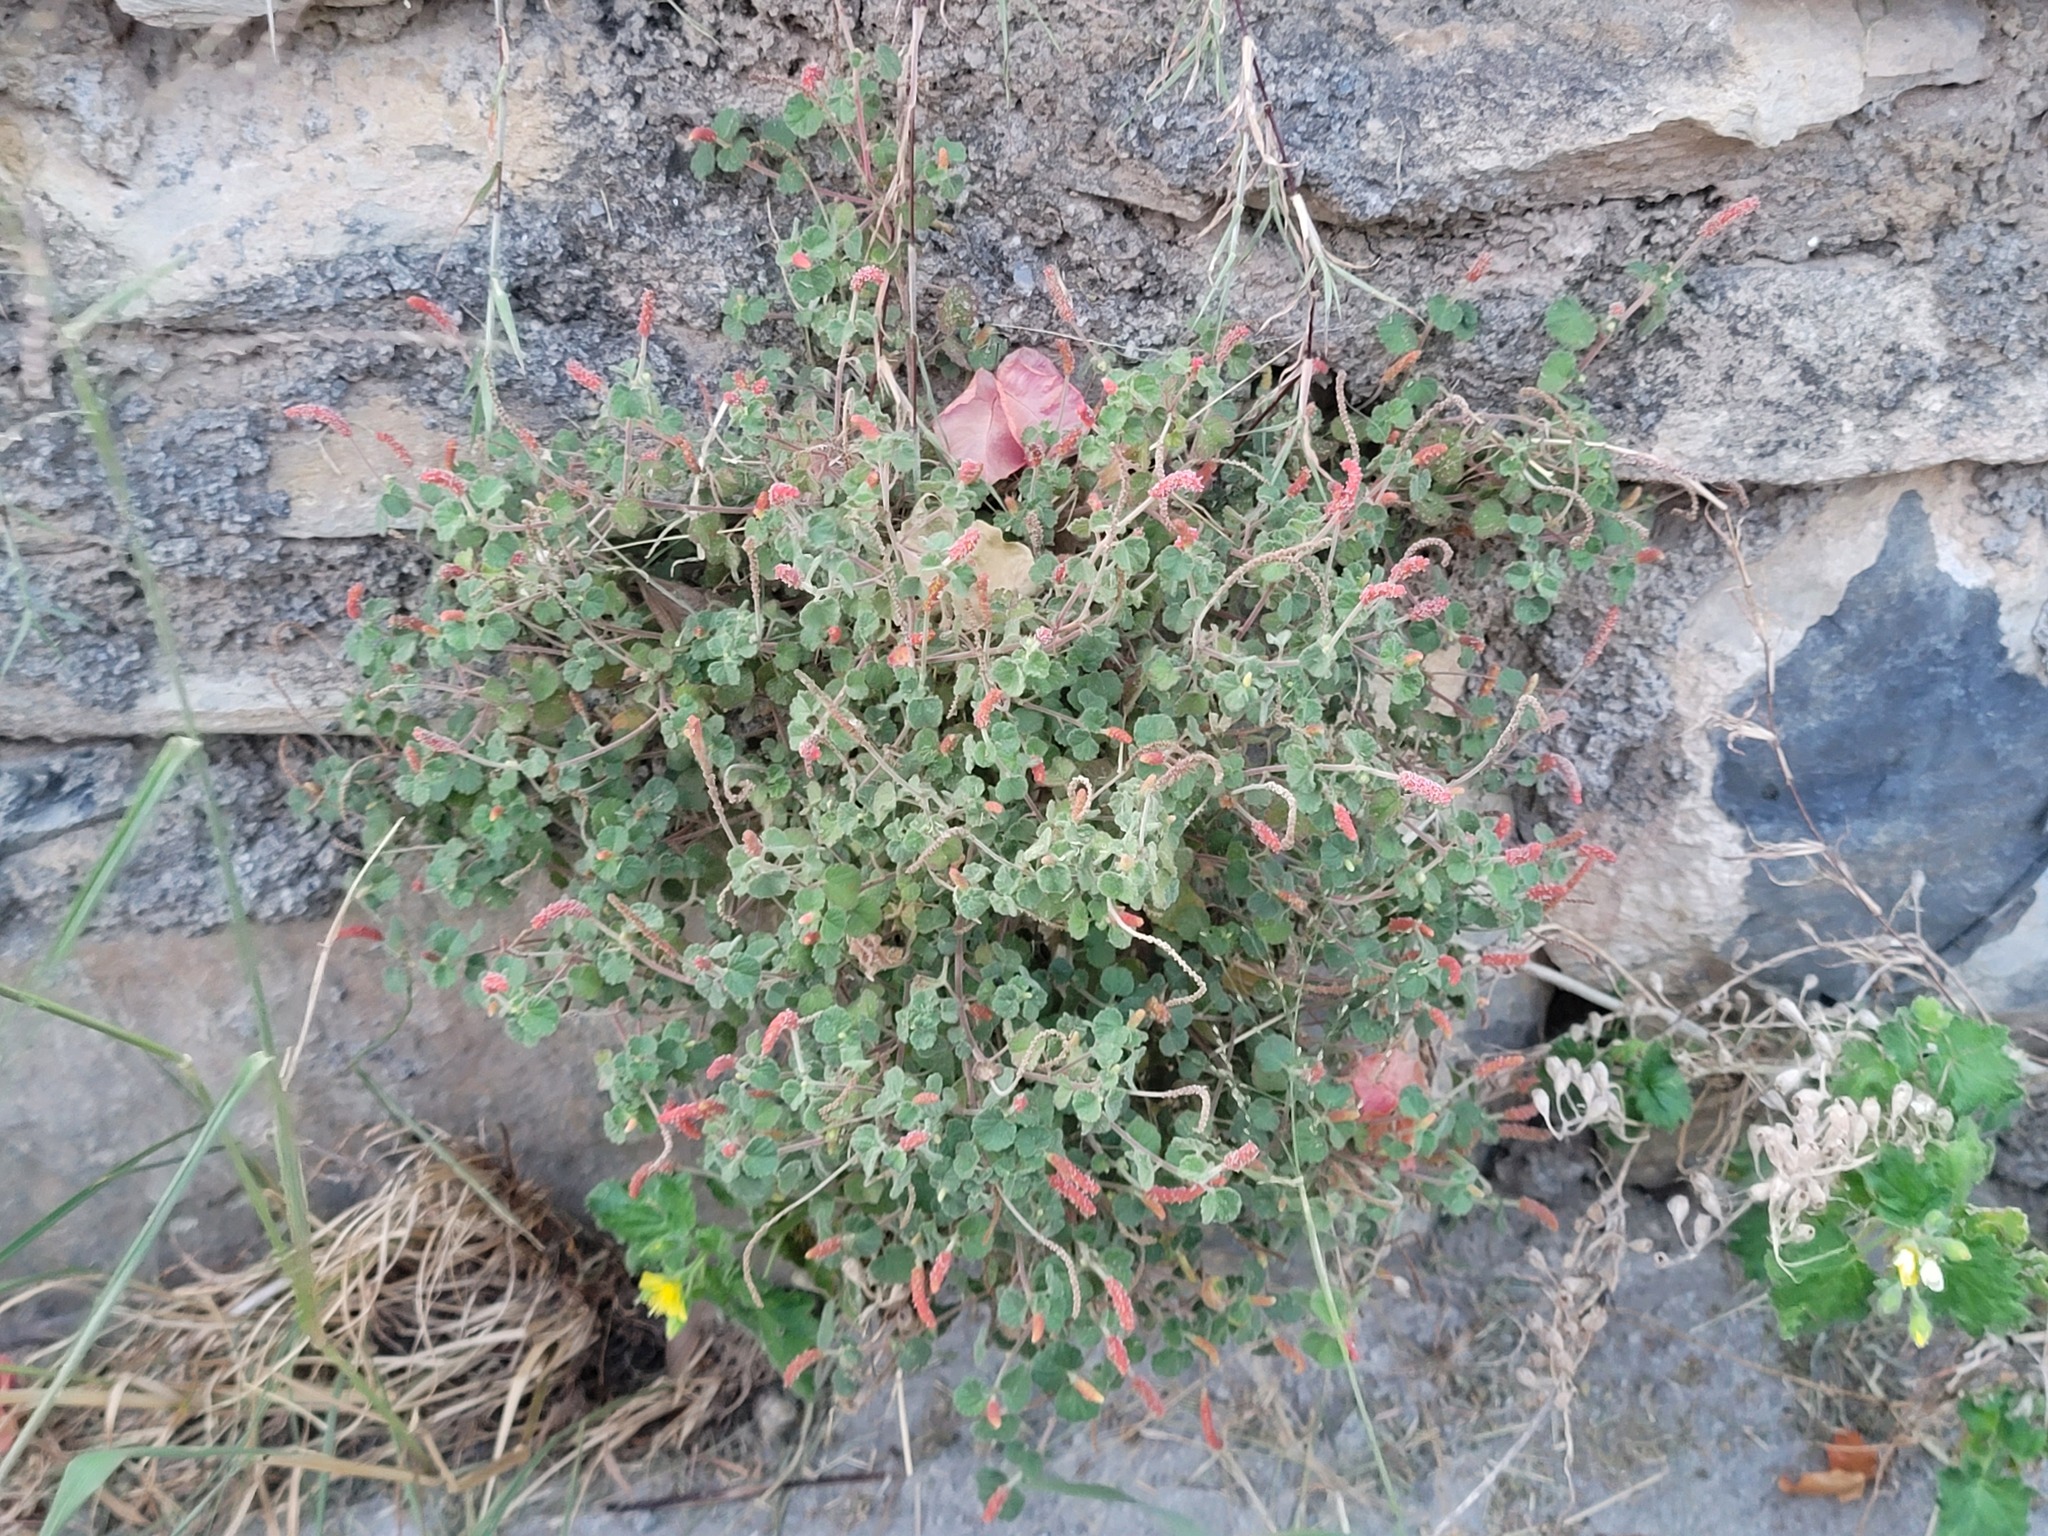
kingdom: Plantae
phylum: Tracheophyta
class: Magnoliopsida
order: Cornales
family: Loasaceae
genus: Eucnide
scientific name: Eucnide lobata
